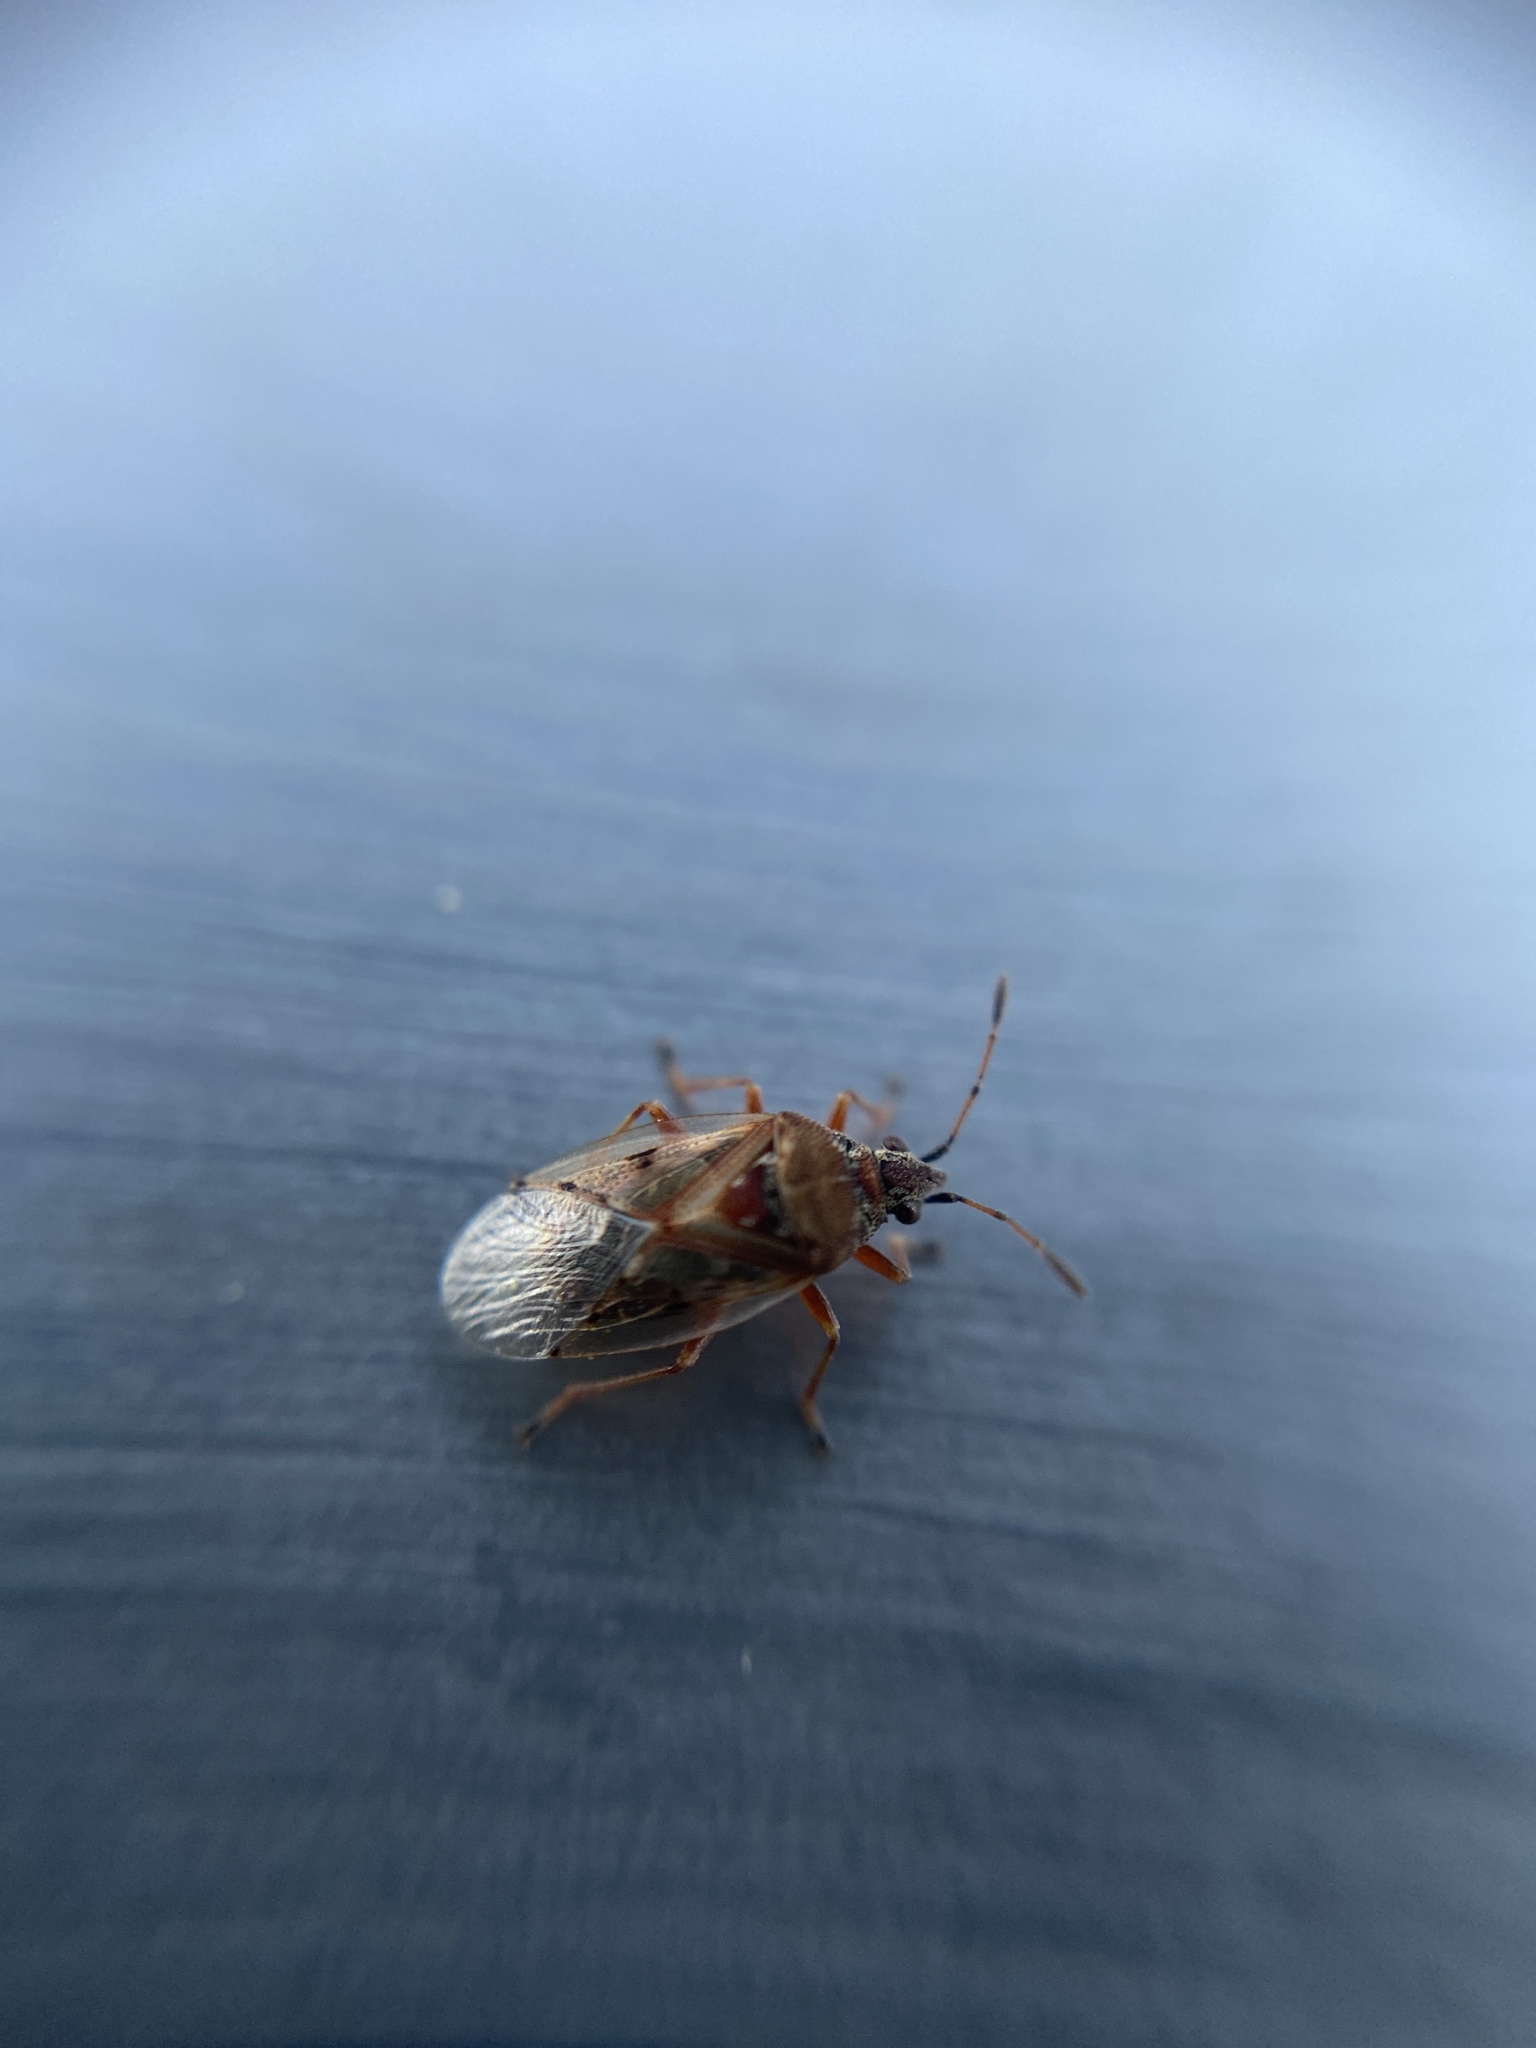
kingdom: Animalia
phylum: Arthropoda
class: Insecta
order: Hemiptera
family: Lygaeidae
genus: Kleidocerys
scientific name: Kleidocerys resedae
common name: Birch catkin bug
